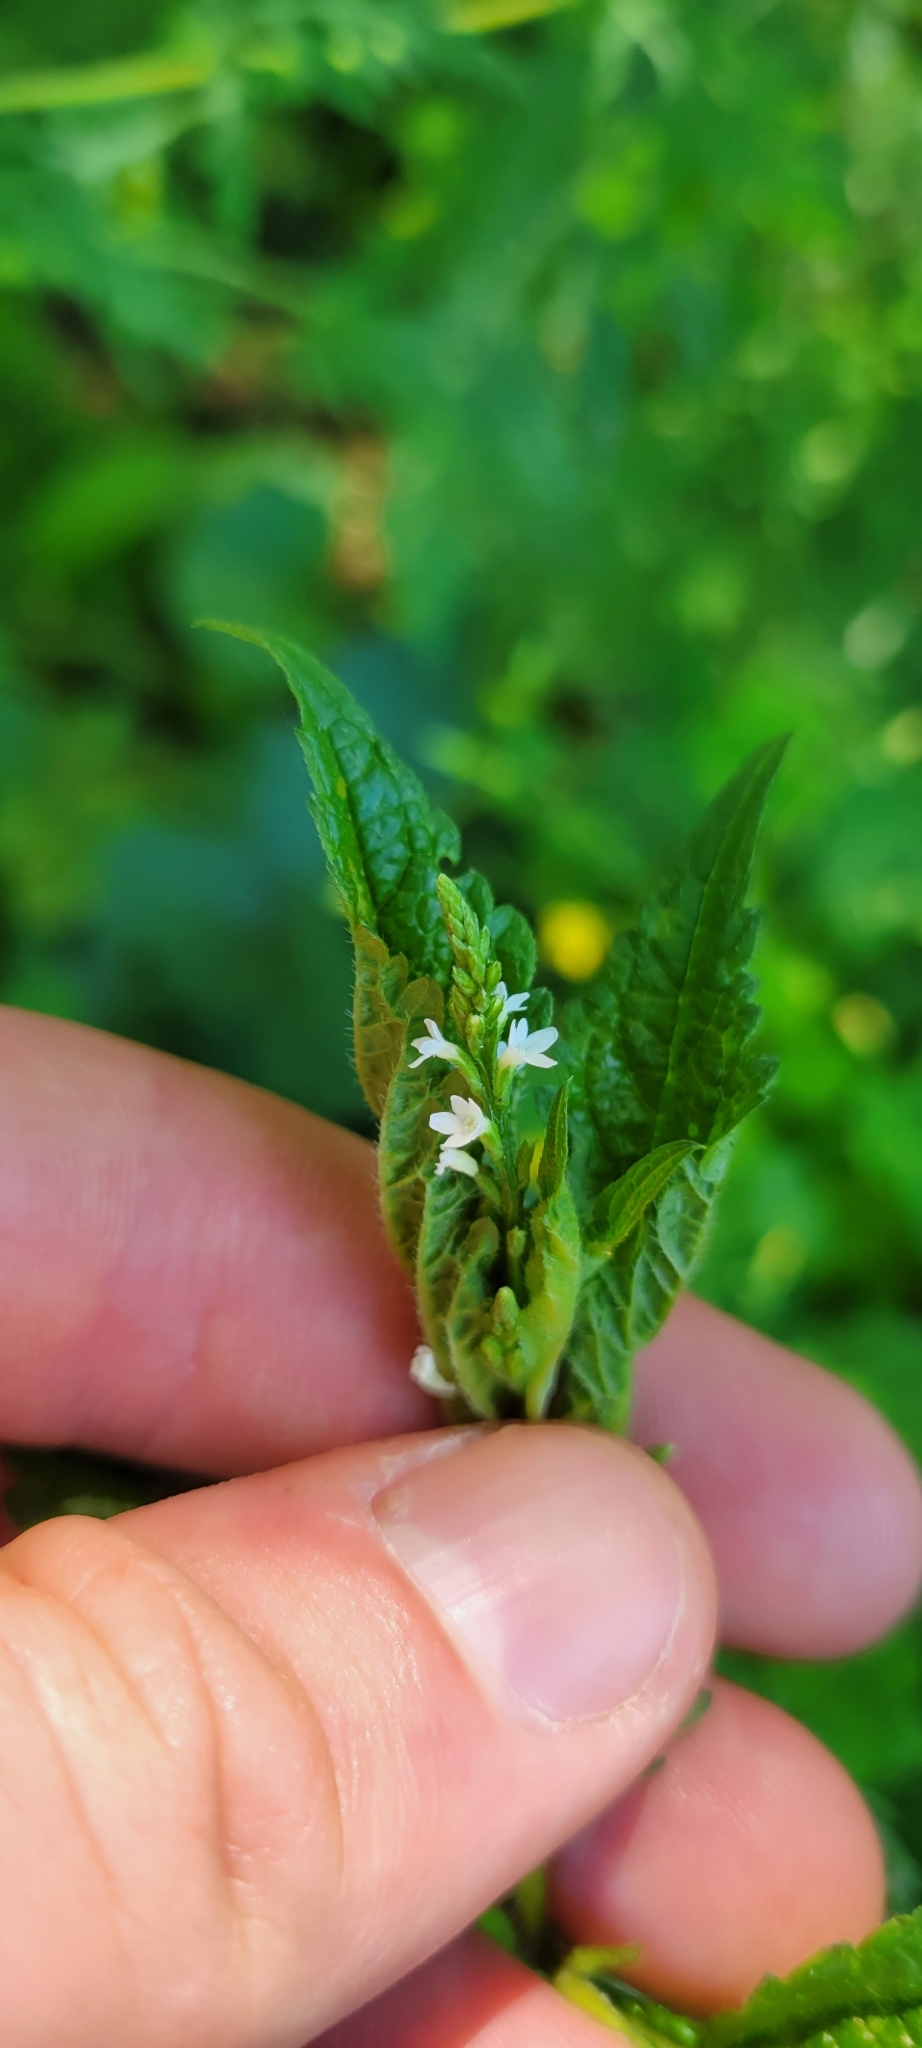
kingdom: Plantae
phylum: Tracheophyta
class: Magnoliopsida
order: Lamiales
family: Verbenaceae
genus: Verbena
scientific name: Verbena urticifolia
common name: Nettle-leaved vervain
